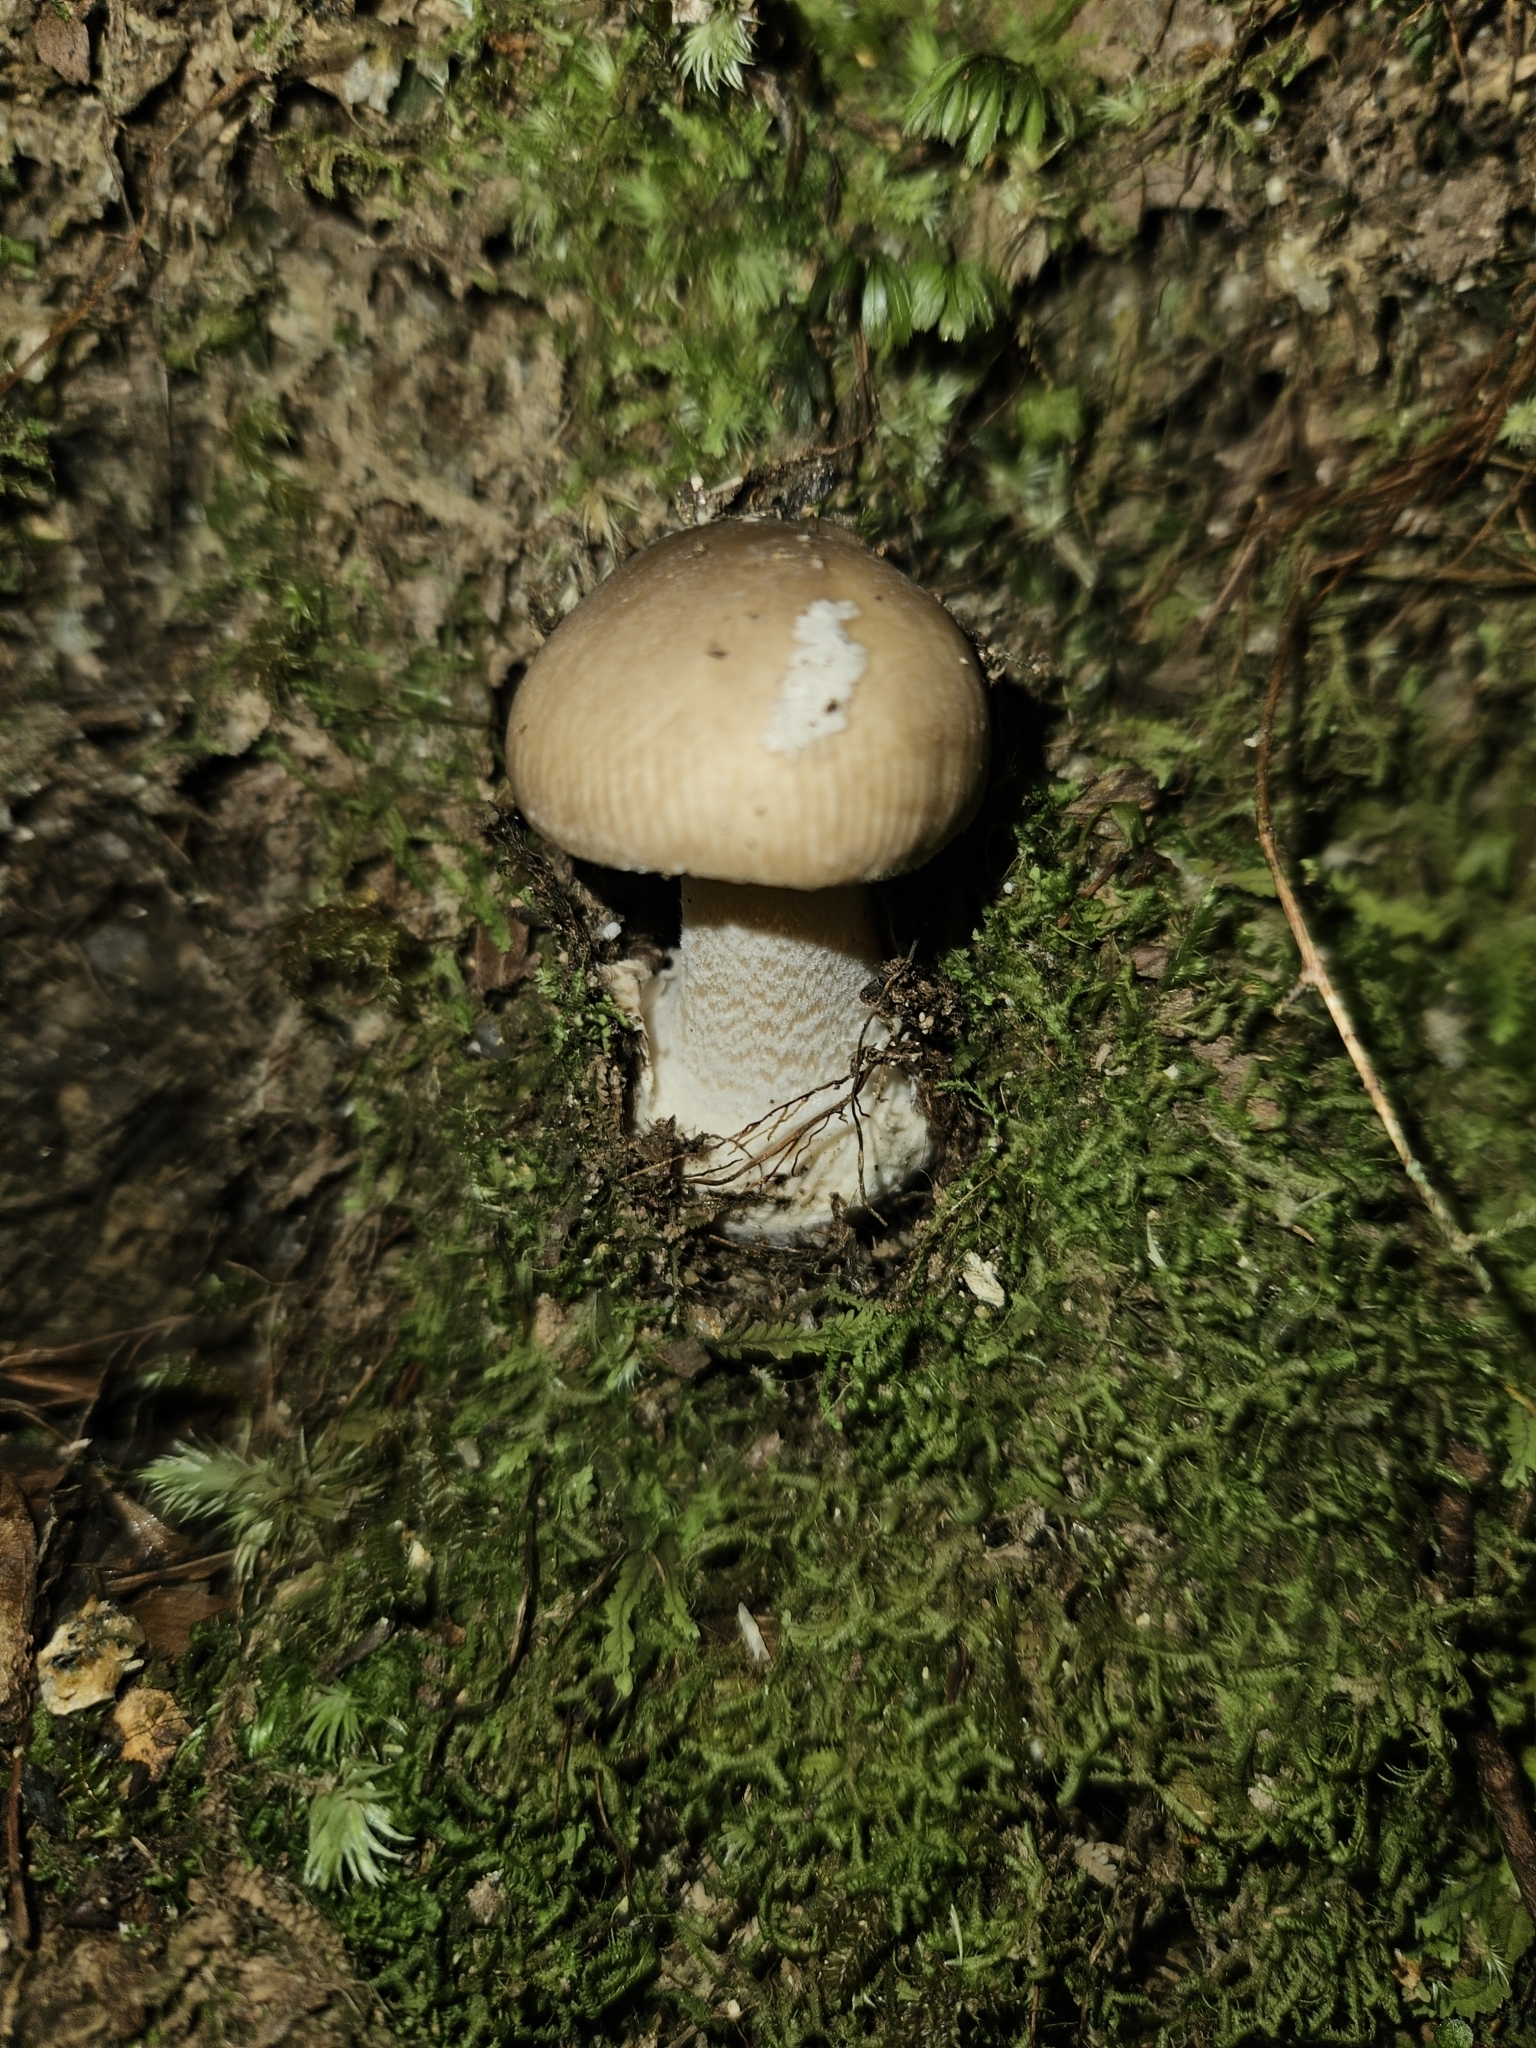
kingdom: Fungi
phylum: Basidiomycota
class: Agaricomycetes
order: Agaricales
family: Amanitaceae
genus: Amanita
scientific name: Amanita taiepa
